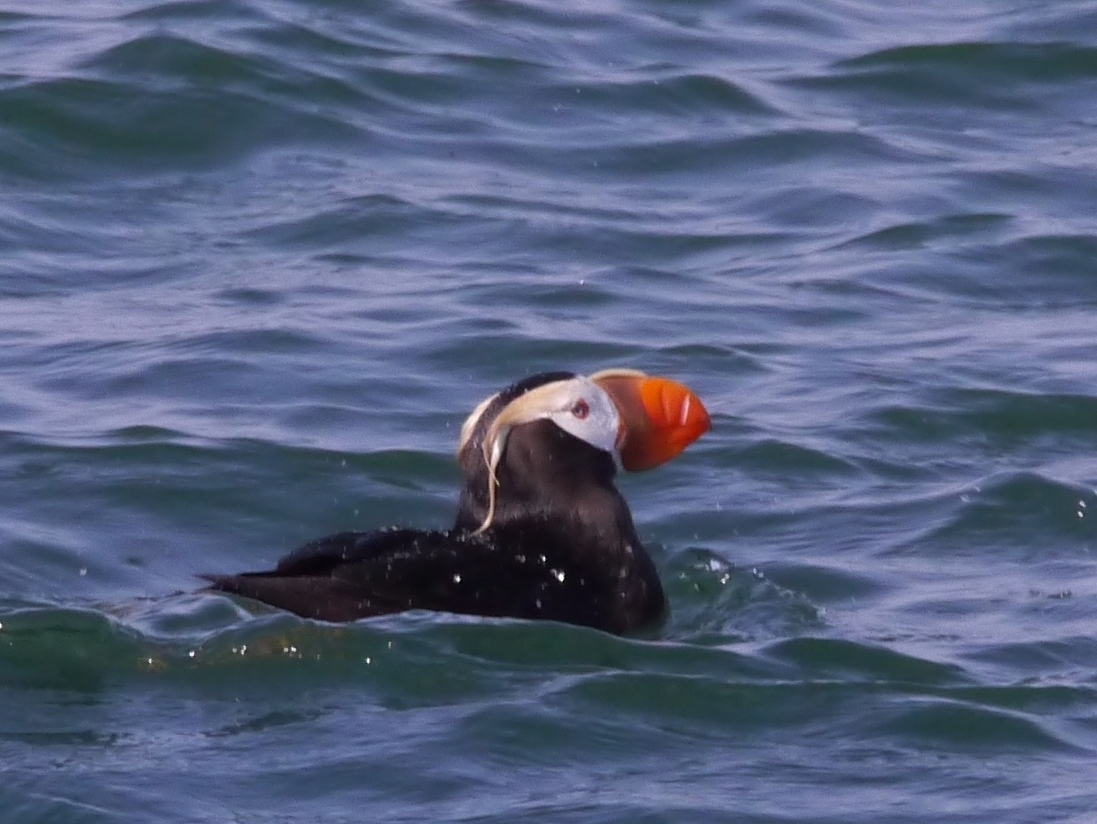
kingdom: Animalia
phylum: Chordata
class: Aves
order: Charadriiformes
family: Alcidae
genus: Fratercula
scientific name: Fratercula cirrhata
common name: Tufted puffin
